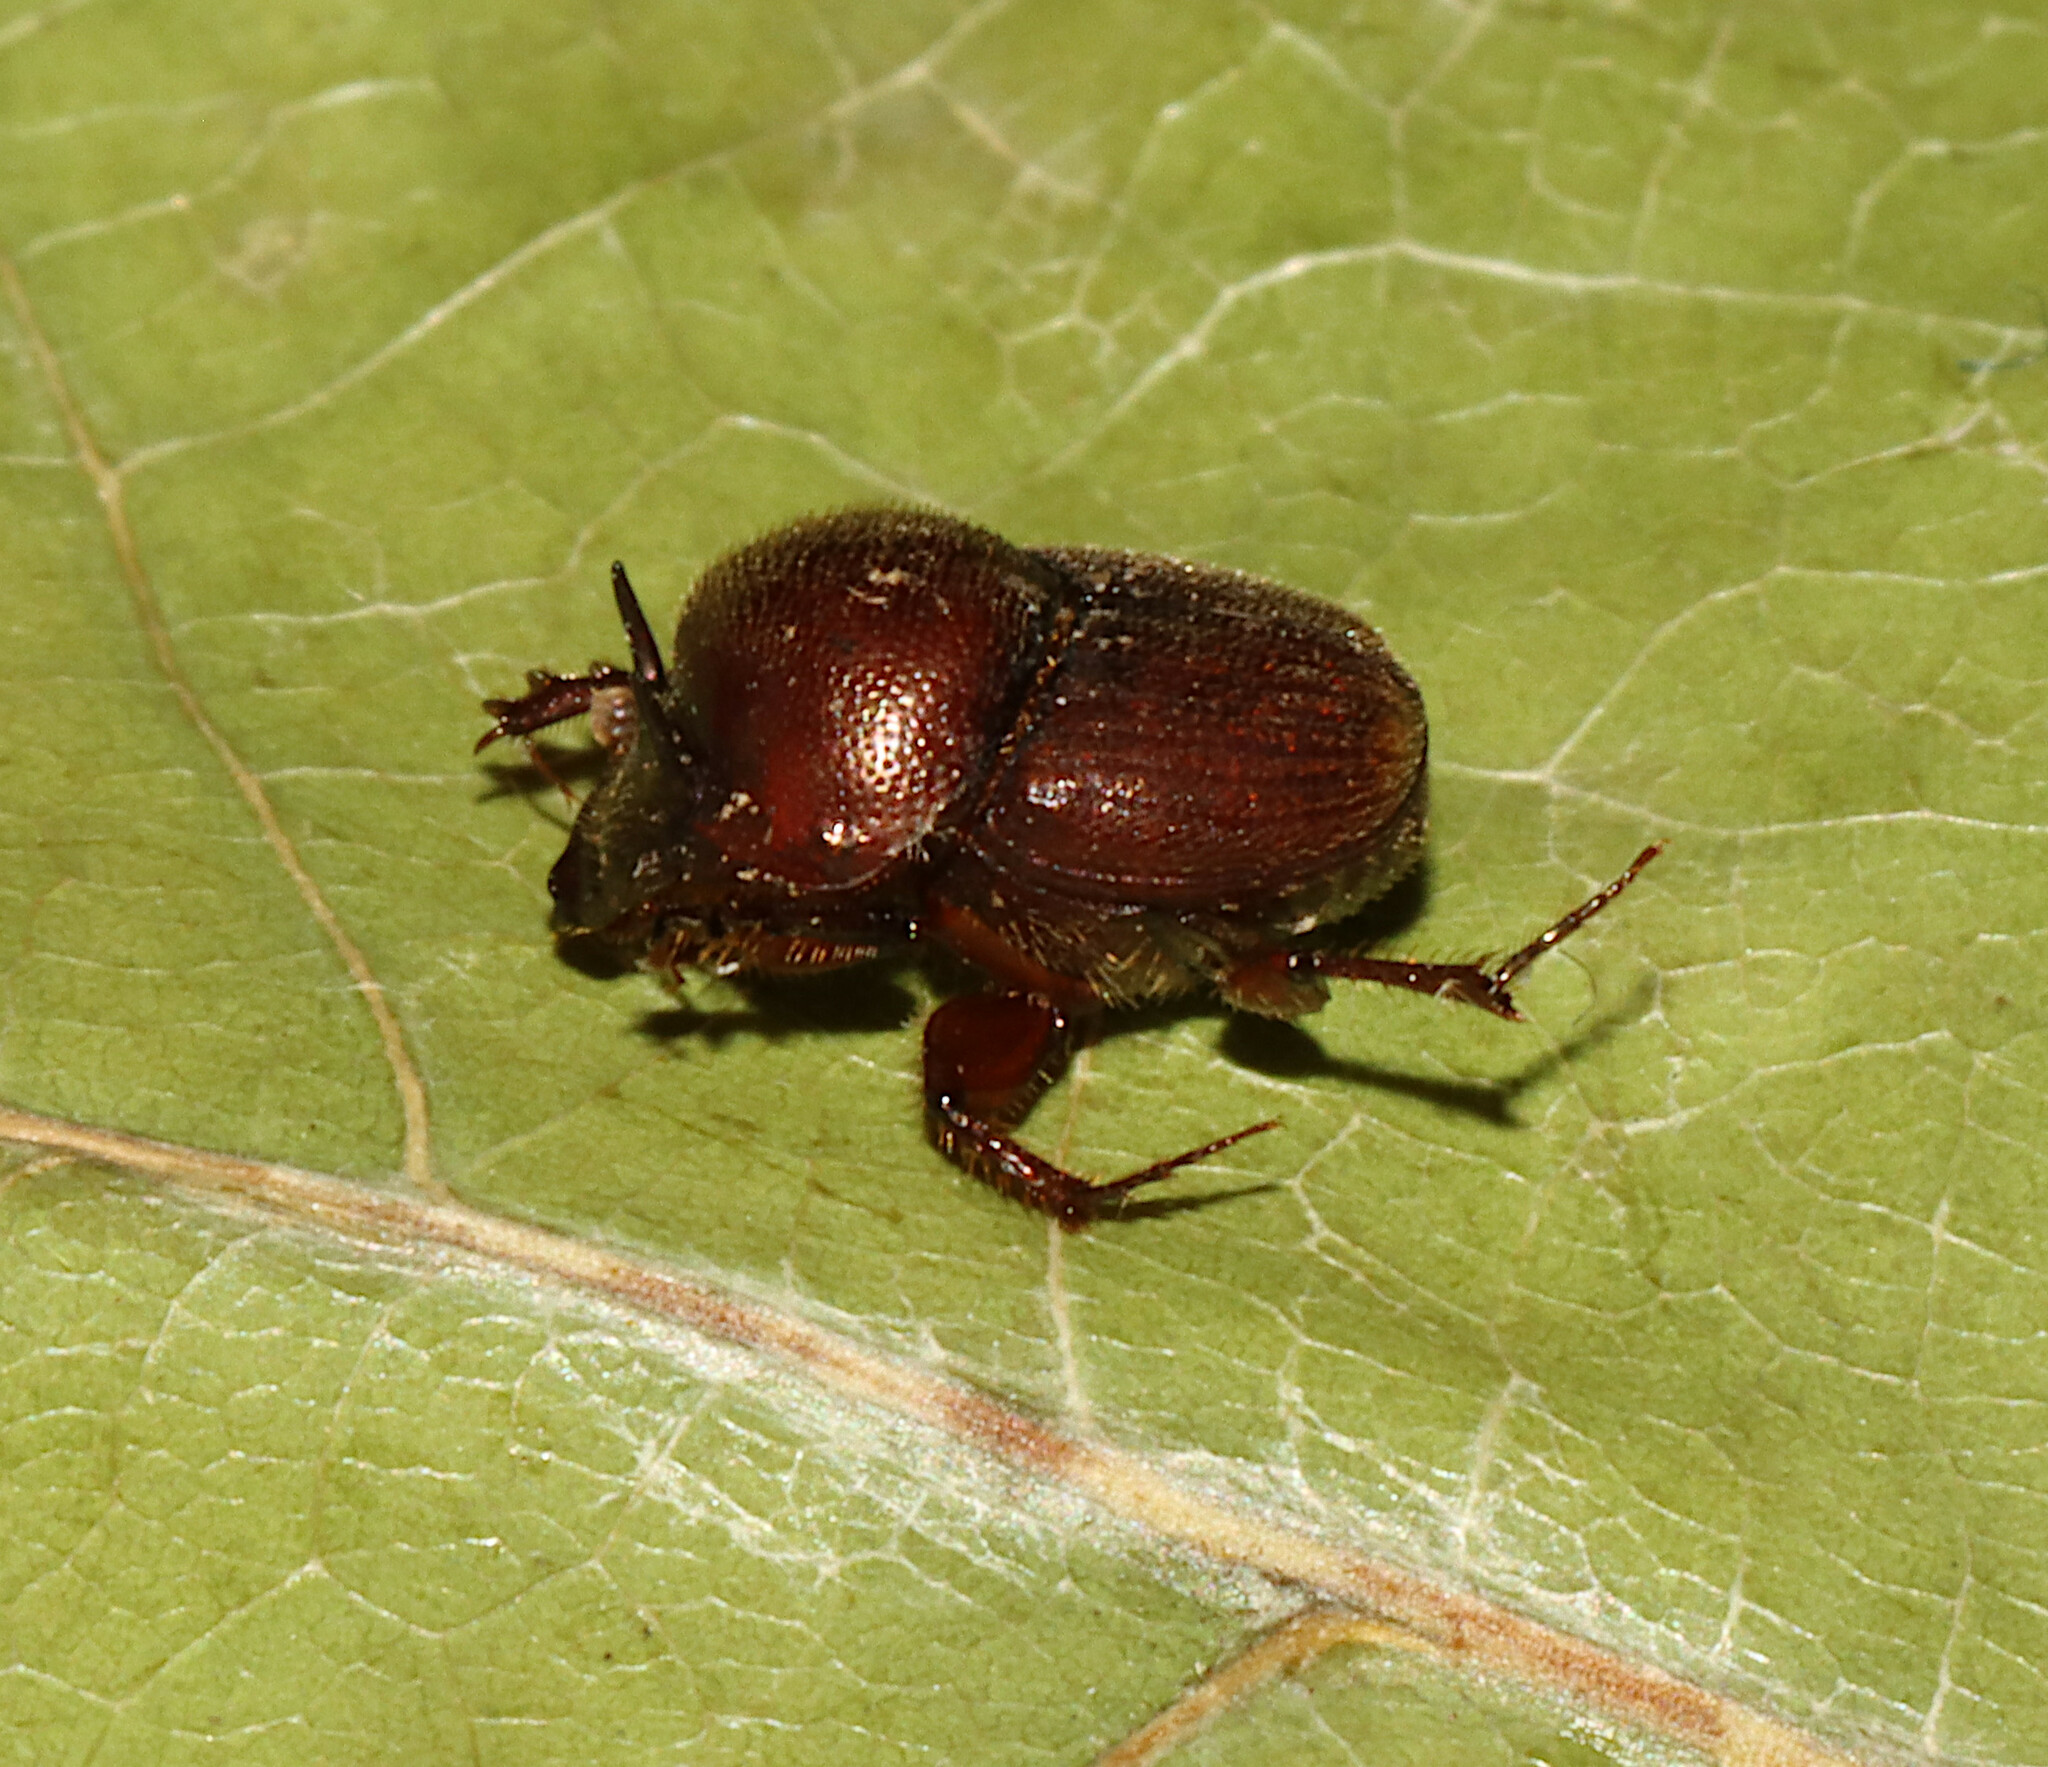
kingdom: Animalia
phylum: Arthropoda
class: Insecta
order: Coleoptera
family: Scarabaeidae
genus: Onthophagus
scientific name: Onthophagus striatulus
